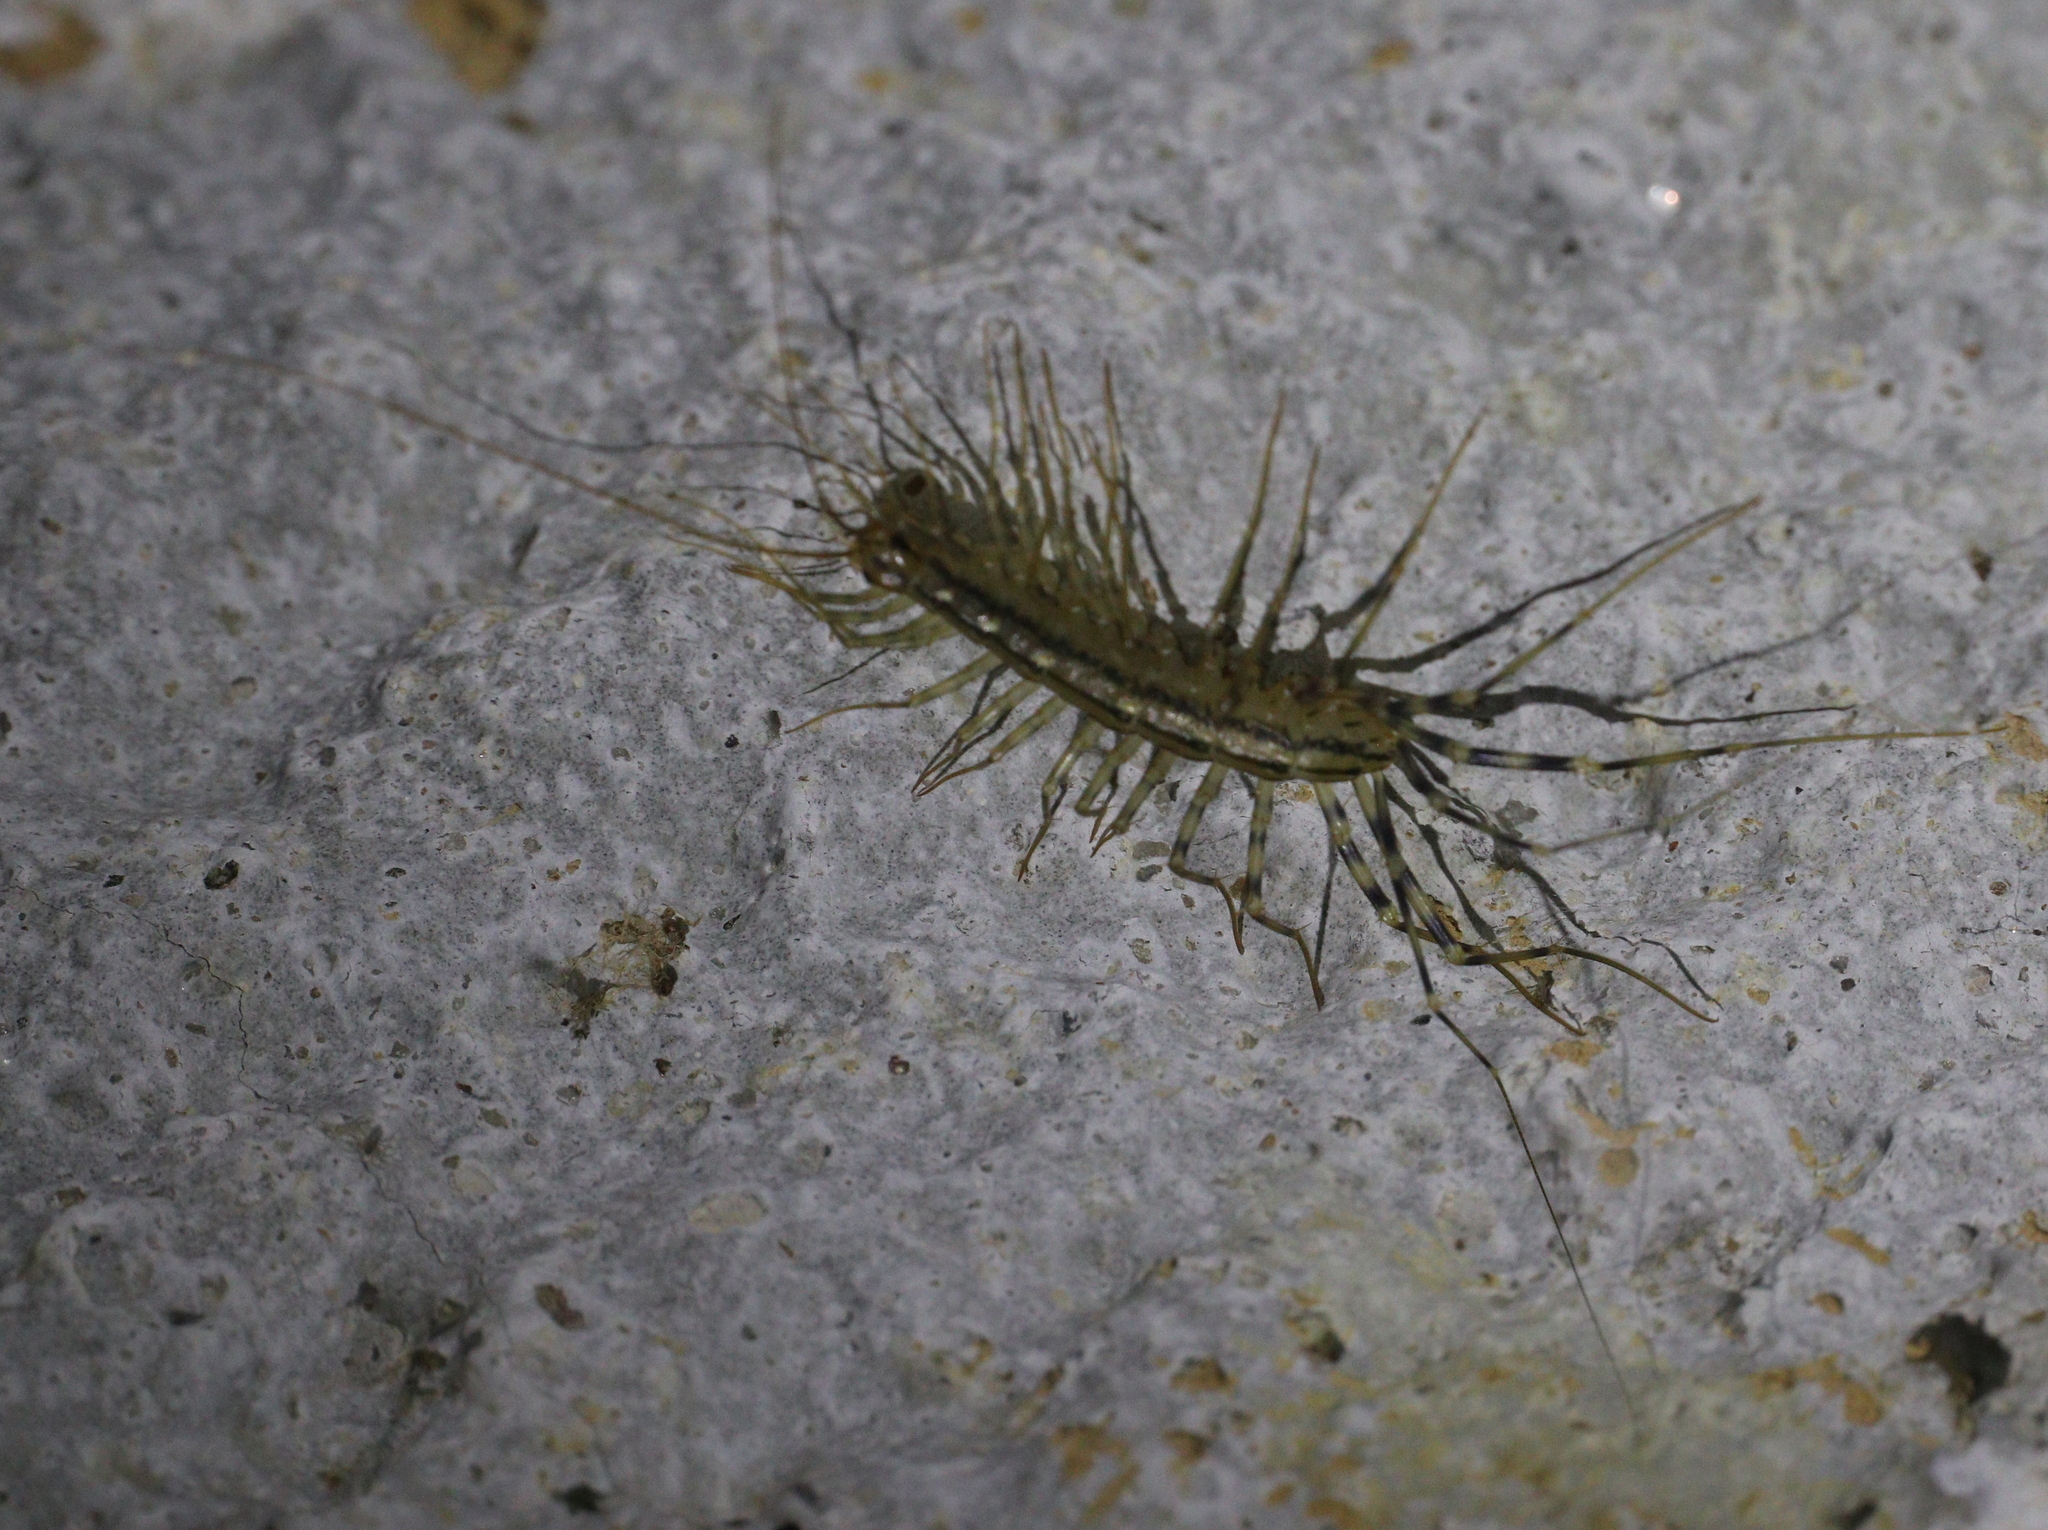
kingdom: Animalia
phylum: Arthropoda
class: Chilopoda
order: Scutigeromorpha
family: Scutigeridae
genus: Scutigera
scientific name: Scutigera coleoptrata
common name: House centipede
